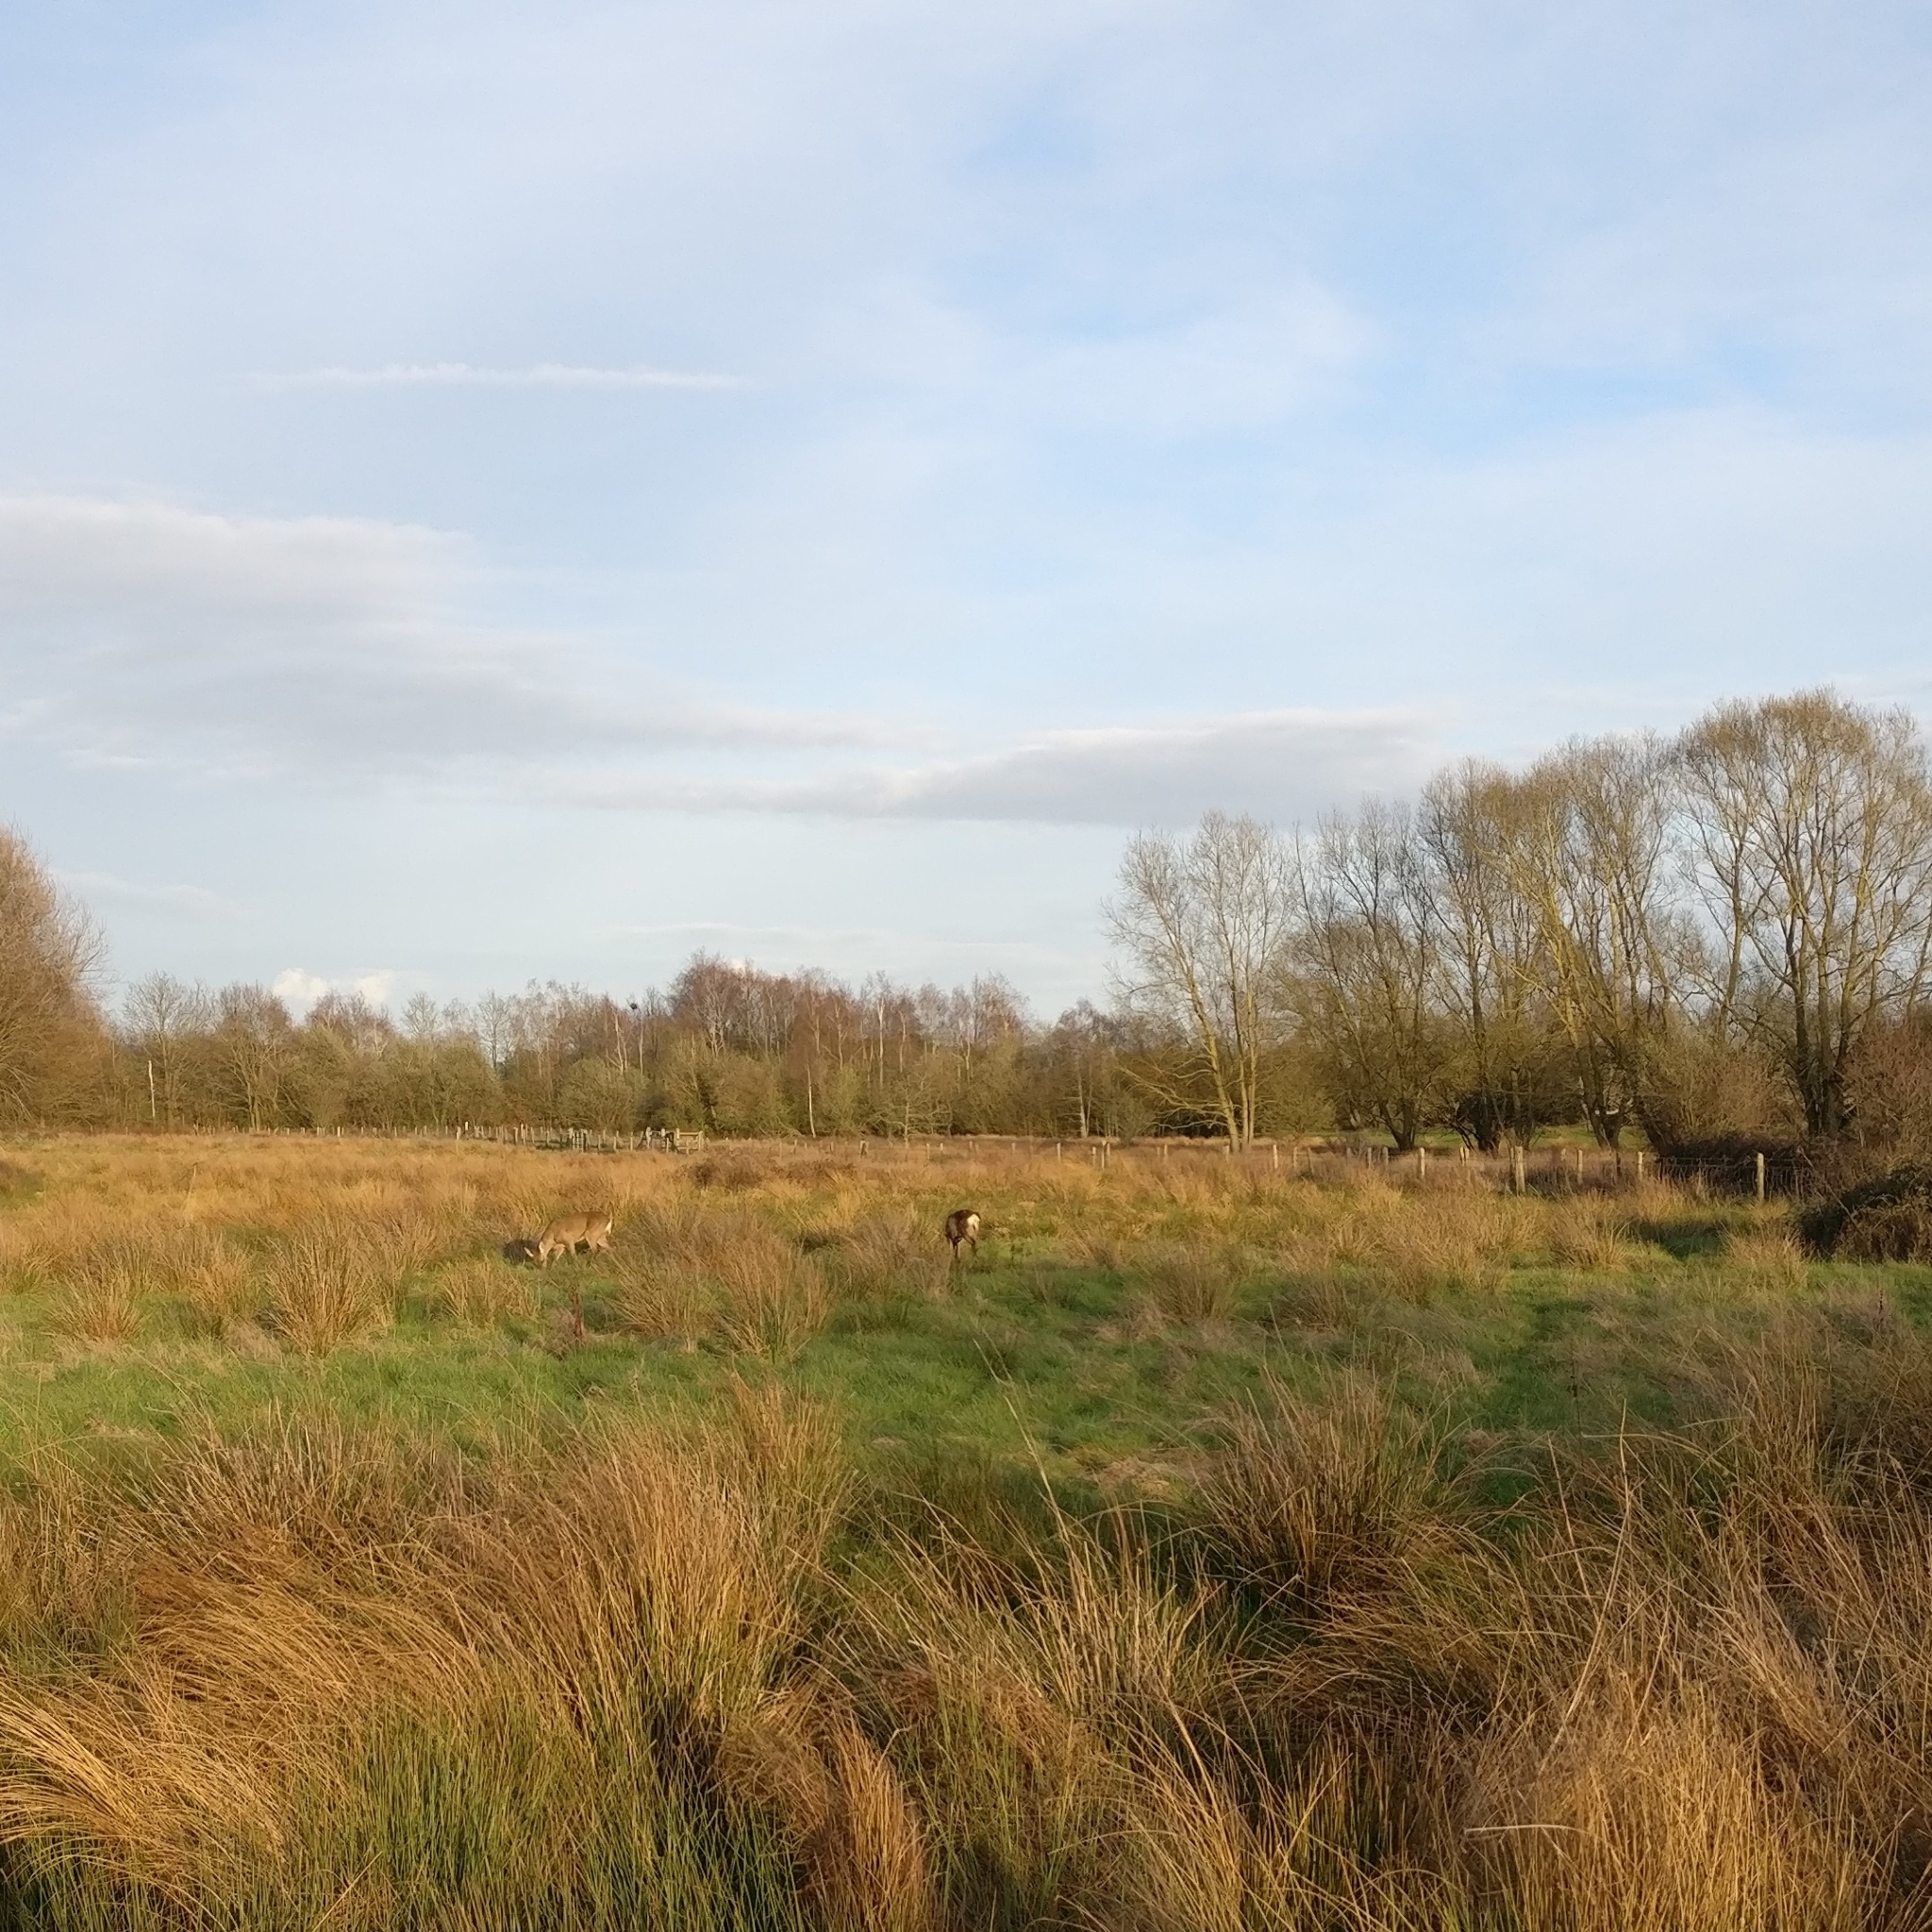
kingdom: Animalia
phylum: Chordata
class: Mammalia
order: Artiodactyla
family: Cervidae
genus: Capreolus
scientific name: Capreolus capreolus
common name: Western roe deer
